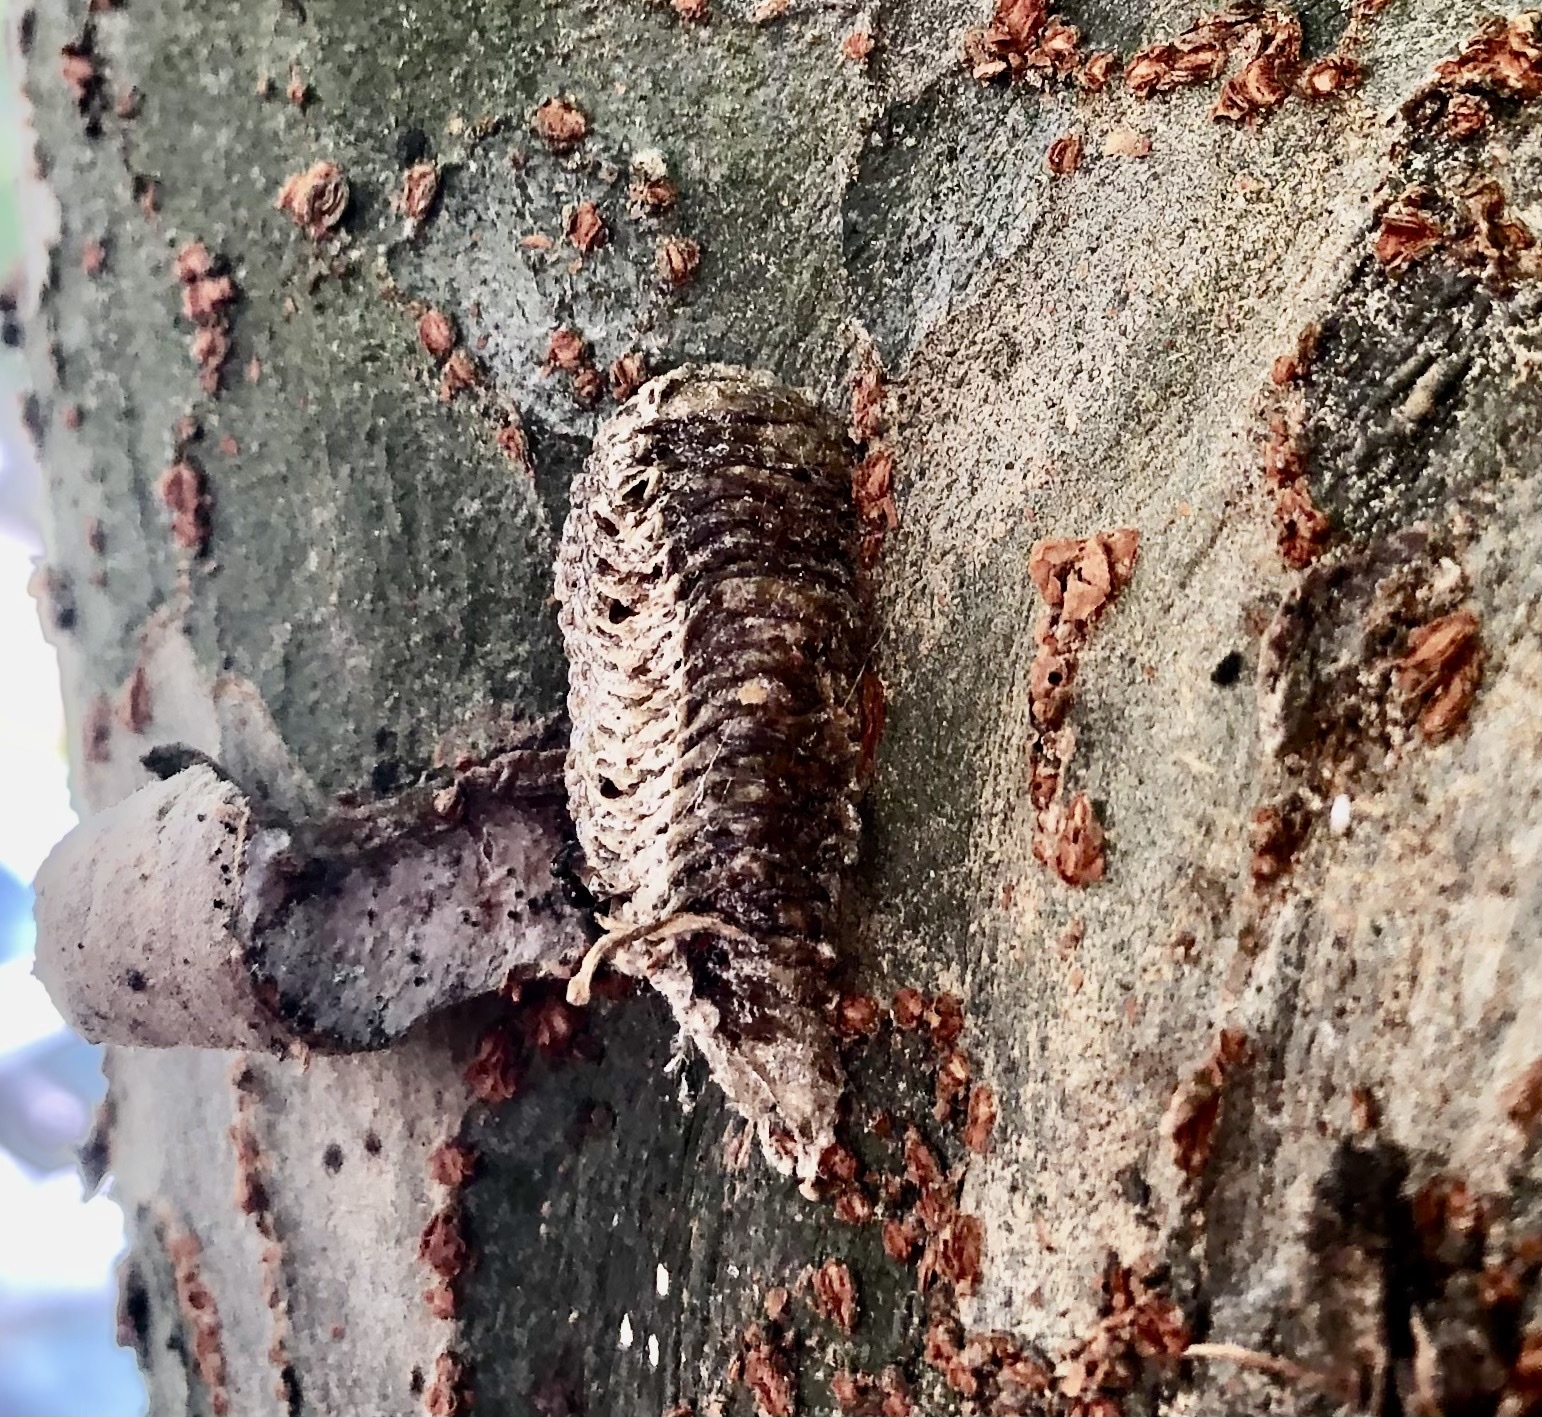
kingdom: Animalia
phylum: Arthropoda
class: Insecta
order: Mantodea
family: Mantidae
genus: Stagmomantis
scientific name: Stagmomantis carolina
